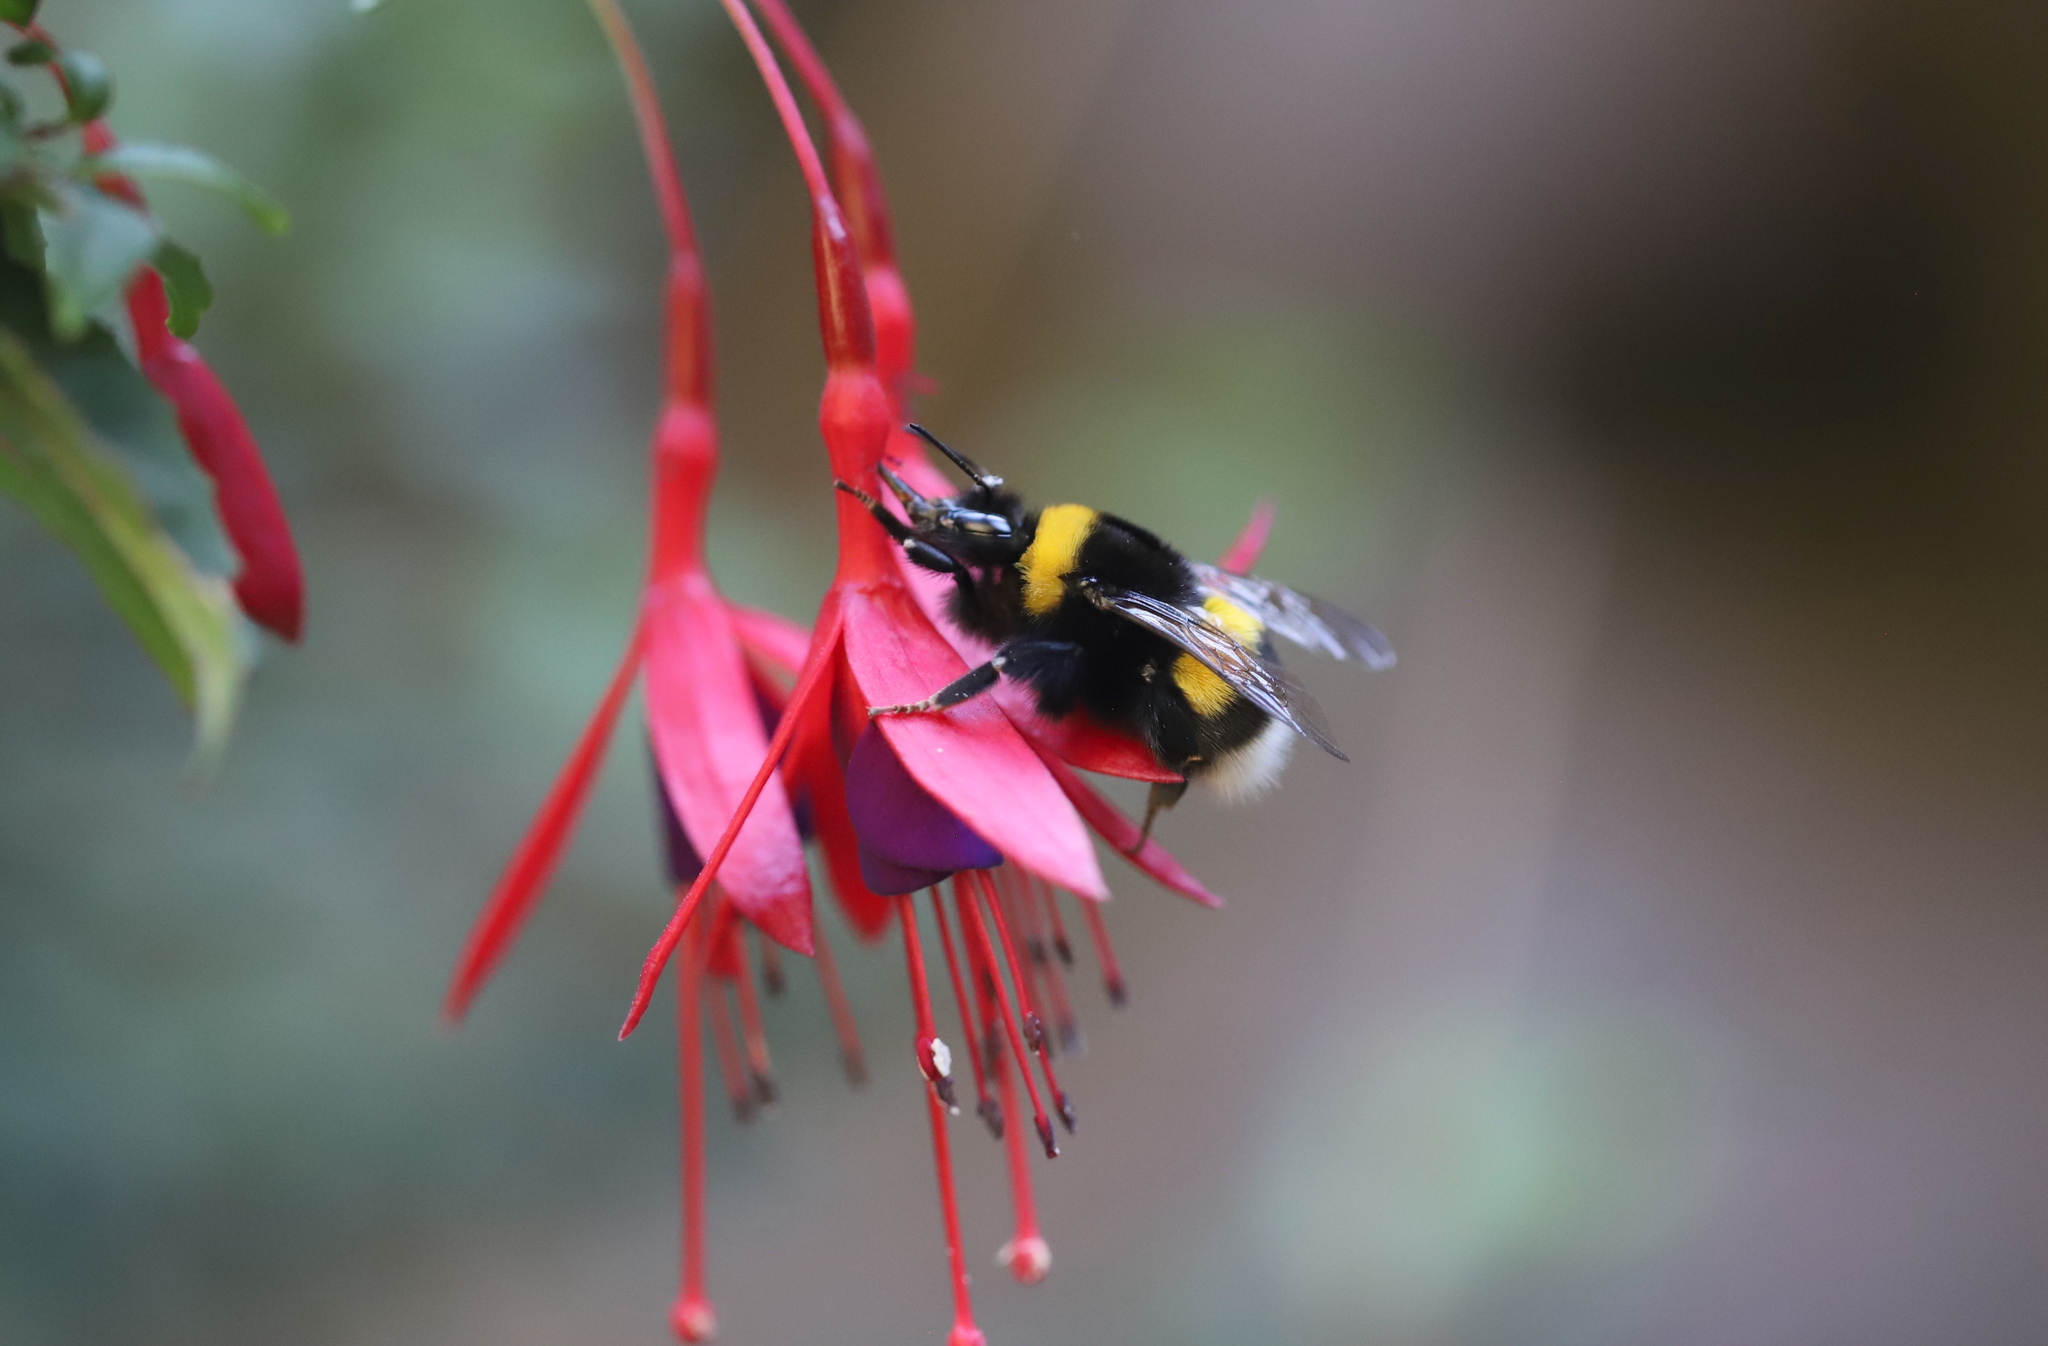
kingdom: Animalia
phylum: Arthropoda
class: Insecta
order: Hymenoptera
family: Apidae
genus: Bombus
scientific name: Bombus terrestris
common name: Buff-tailed bumblebee
